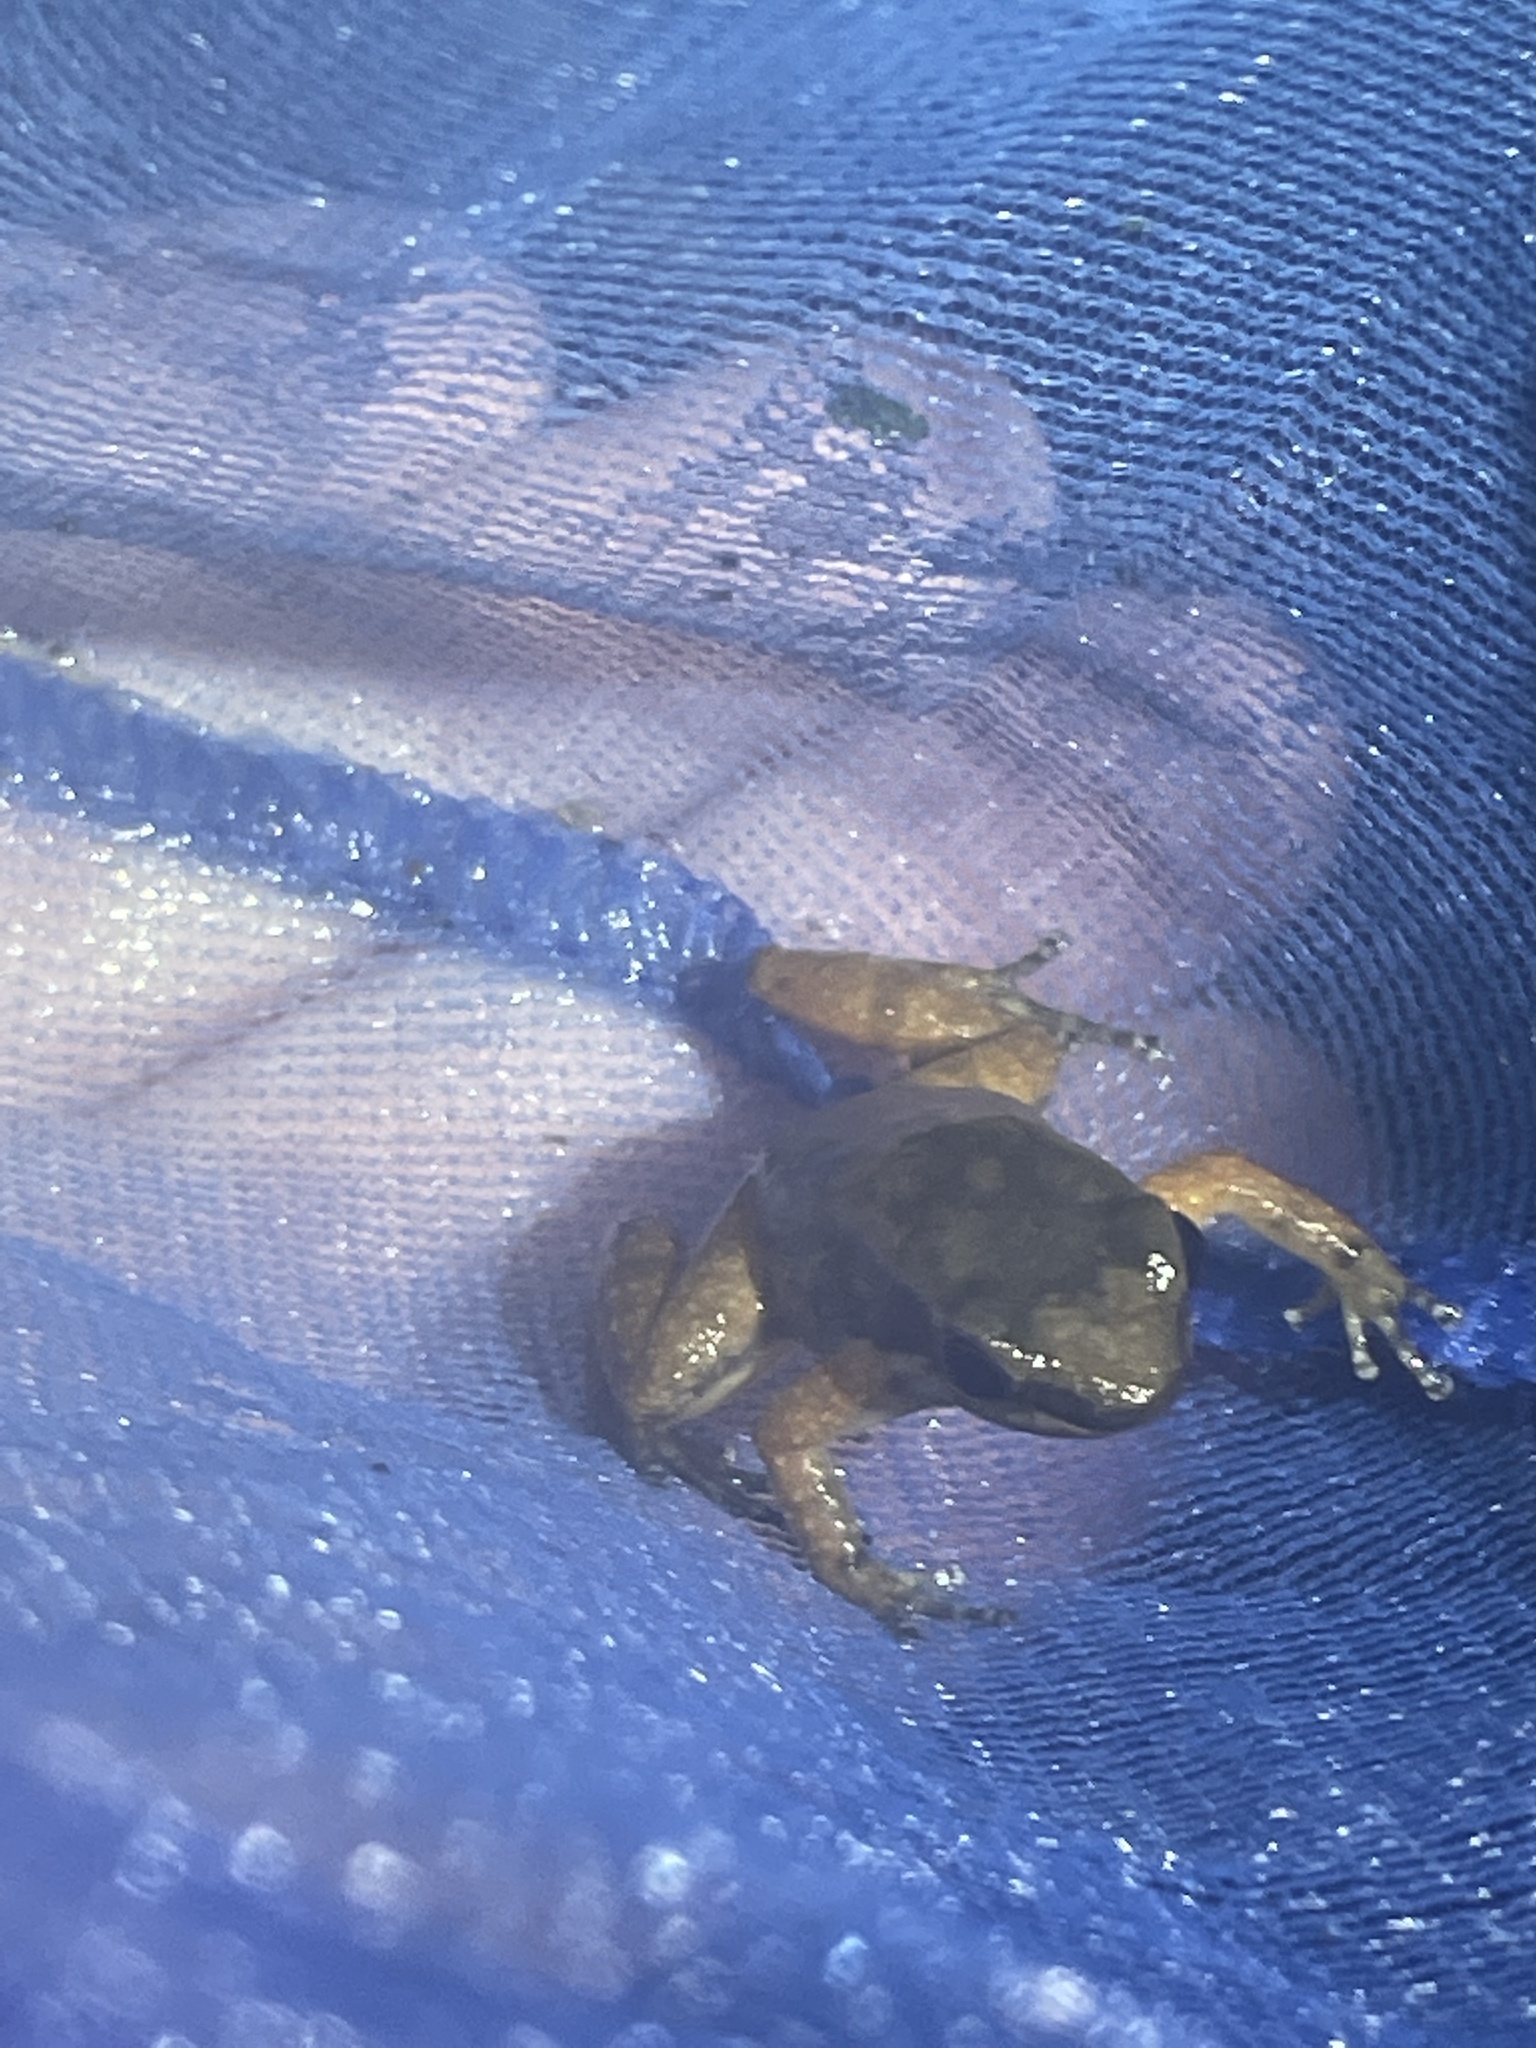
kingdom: Animalia
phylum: Chordata
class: Amphibia
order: Anura
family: Aromobatidae
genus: Mannophryne
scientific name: Mannophryne trinitatis
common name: Trinidad poison frog
